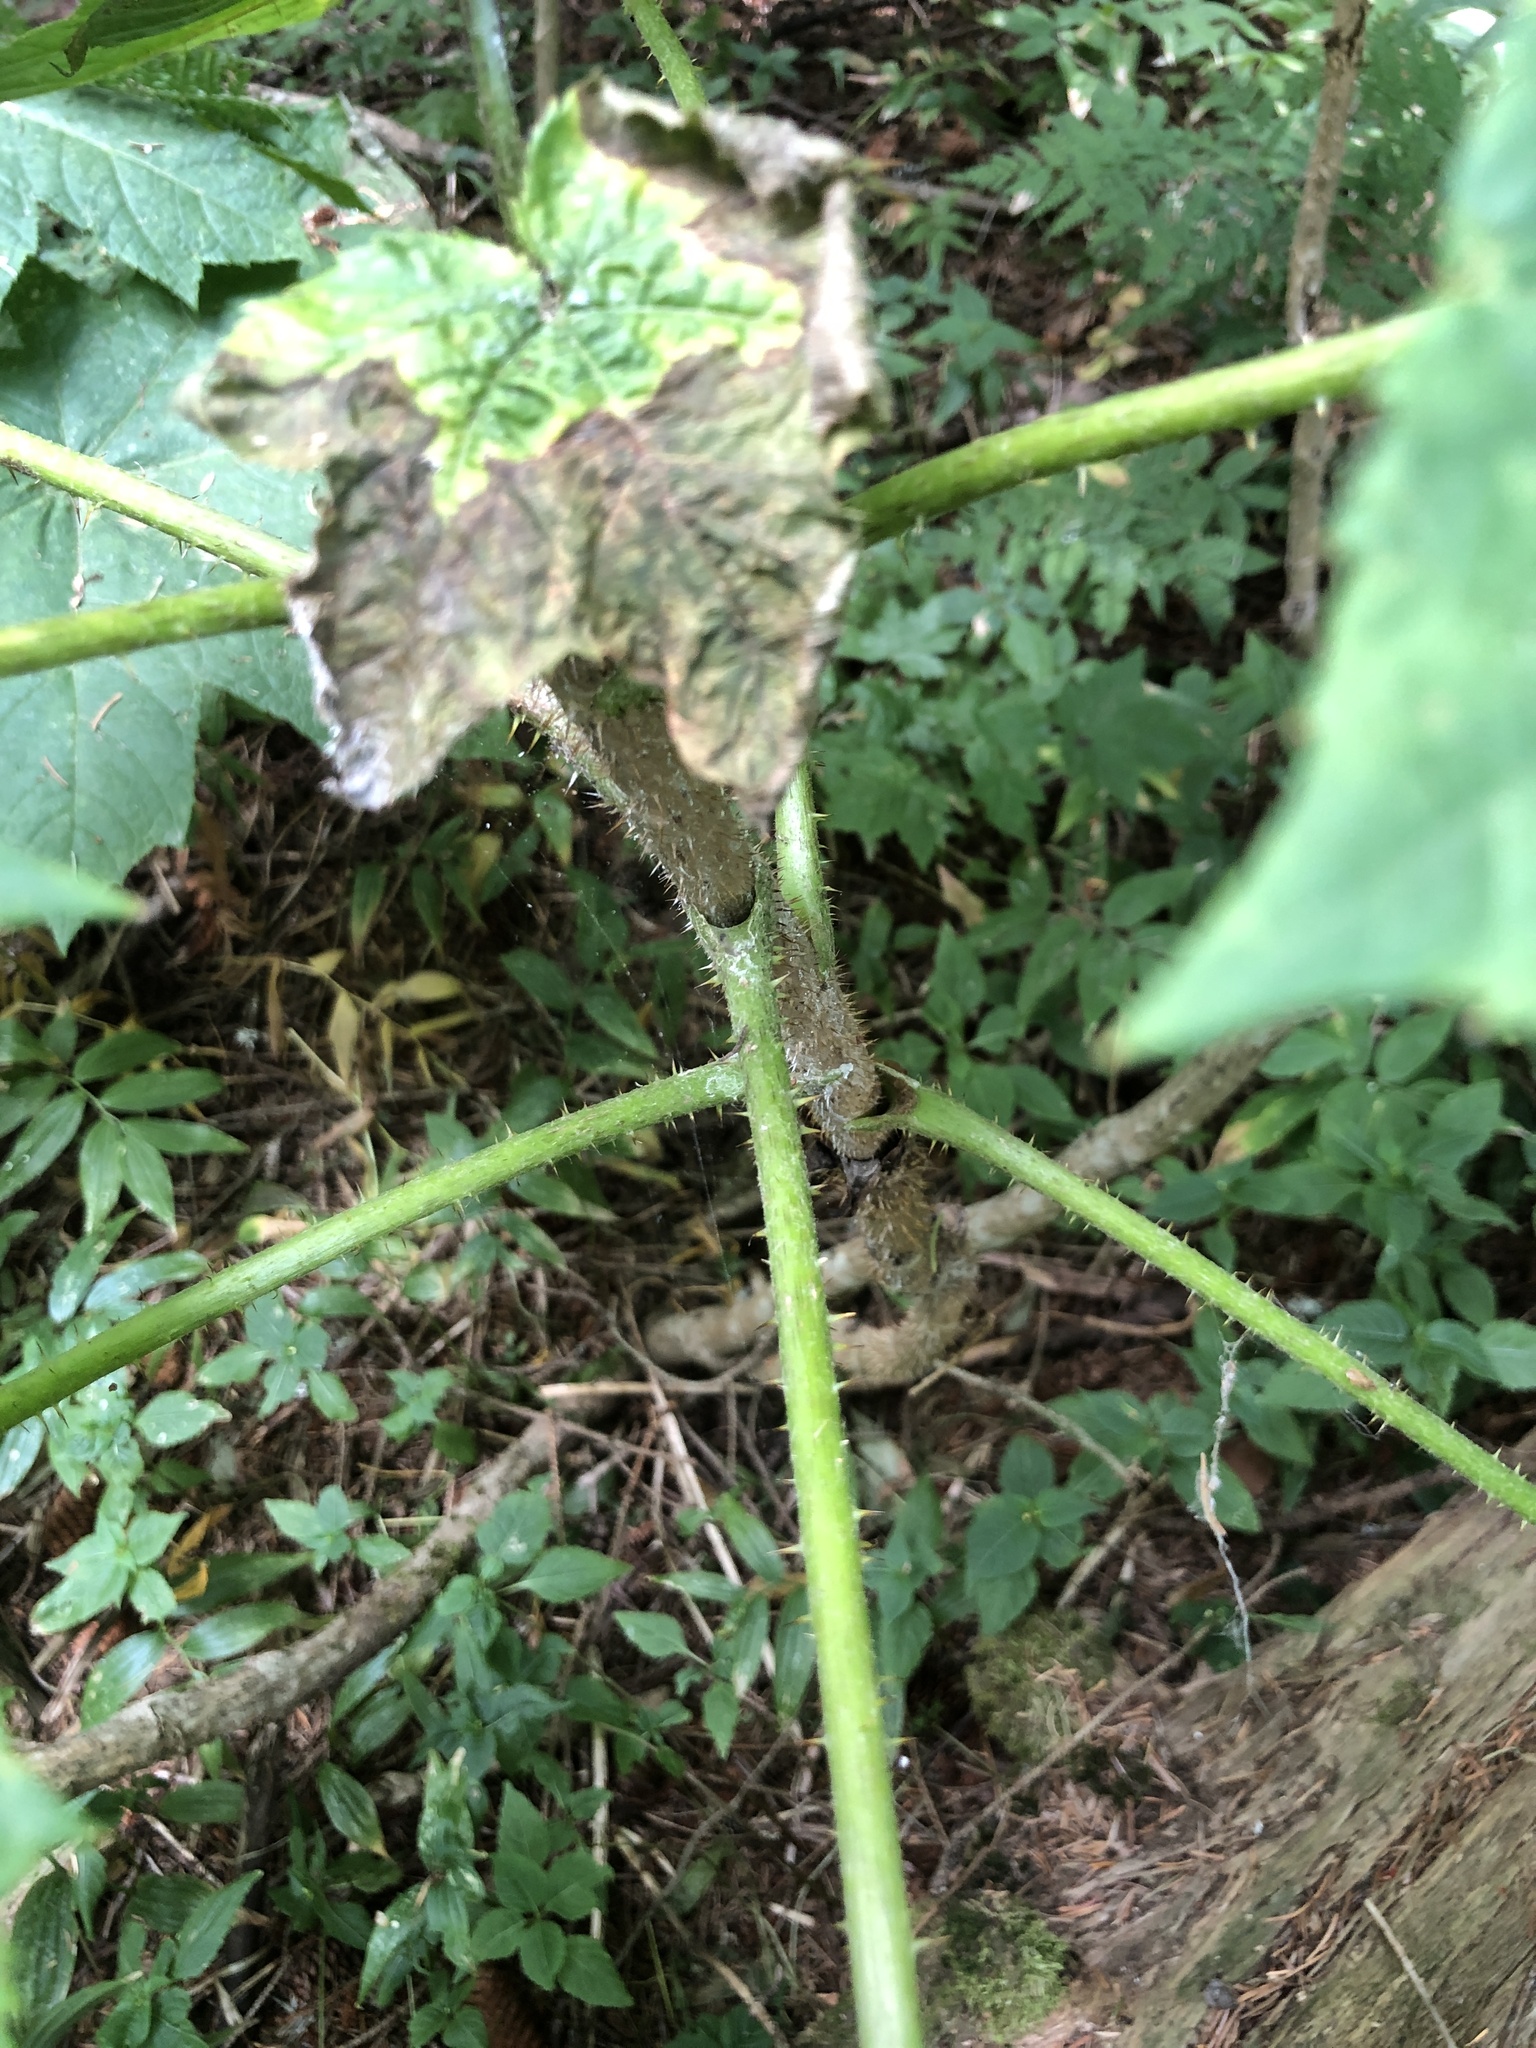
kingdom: Plantae
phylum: Tracheophyta
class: Magnoliopsida
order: Apiales
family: Araliaceae
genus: Oplopanax
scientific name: Oplopanax horridus
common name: Devil's walking-stick
